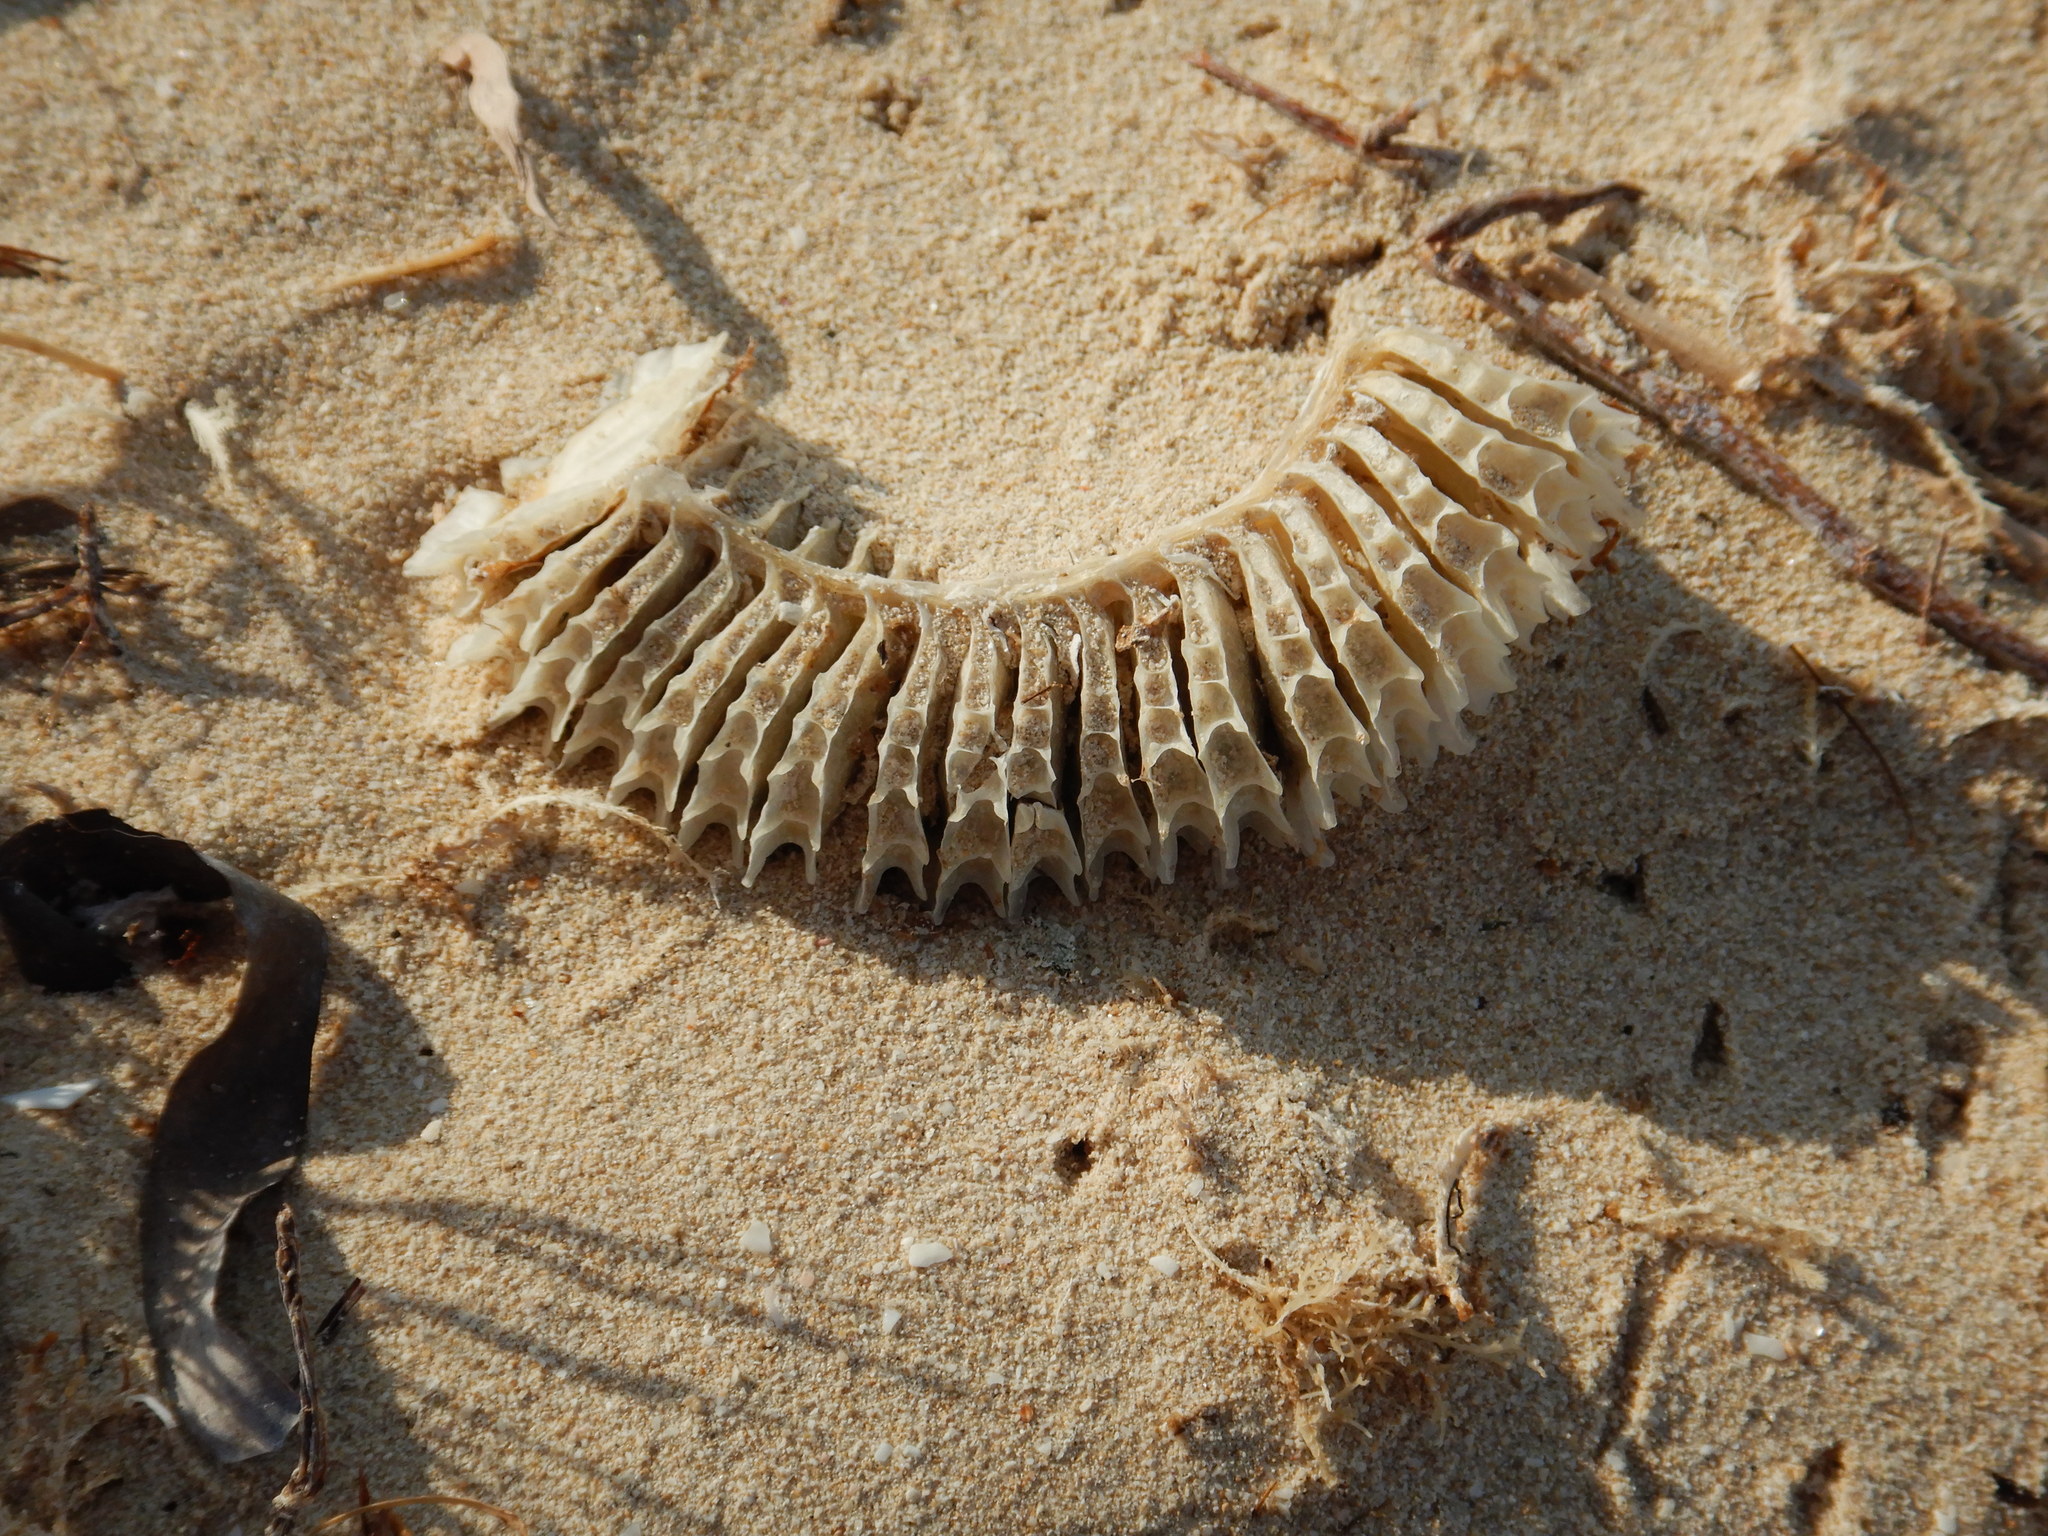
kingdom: Animalia
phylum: Mollusca
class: Gastropoda
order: Neogastropoda
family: Busyconidae
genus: Sinistrofulgur
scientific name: Sinistrofulgur sinistrum
